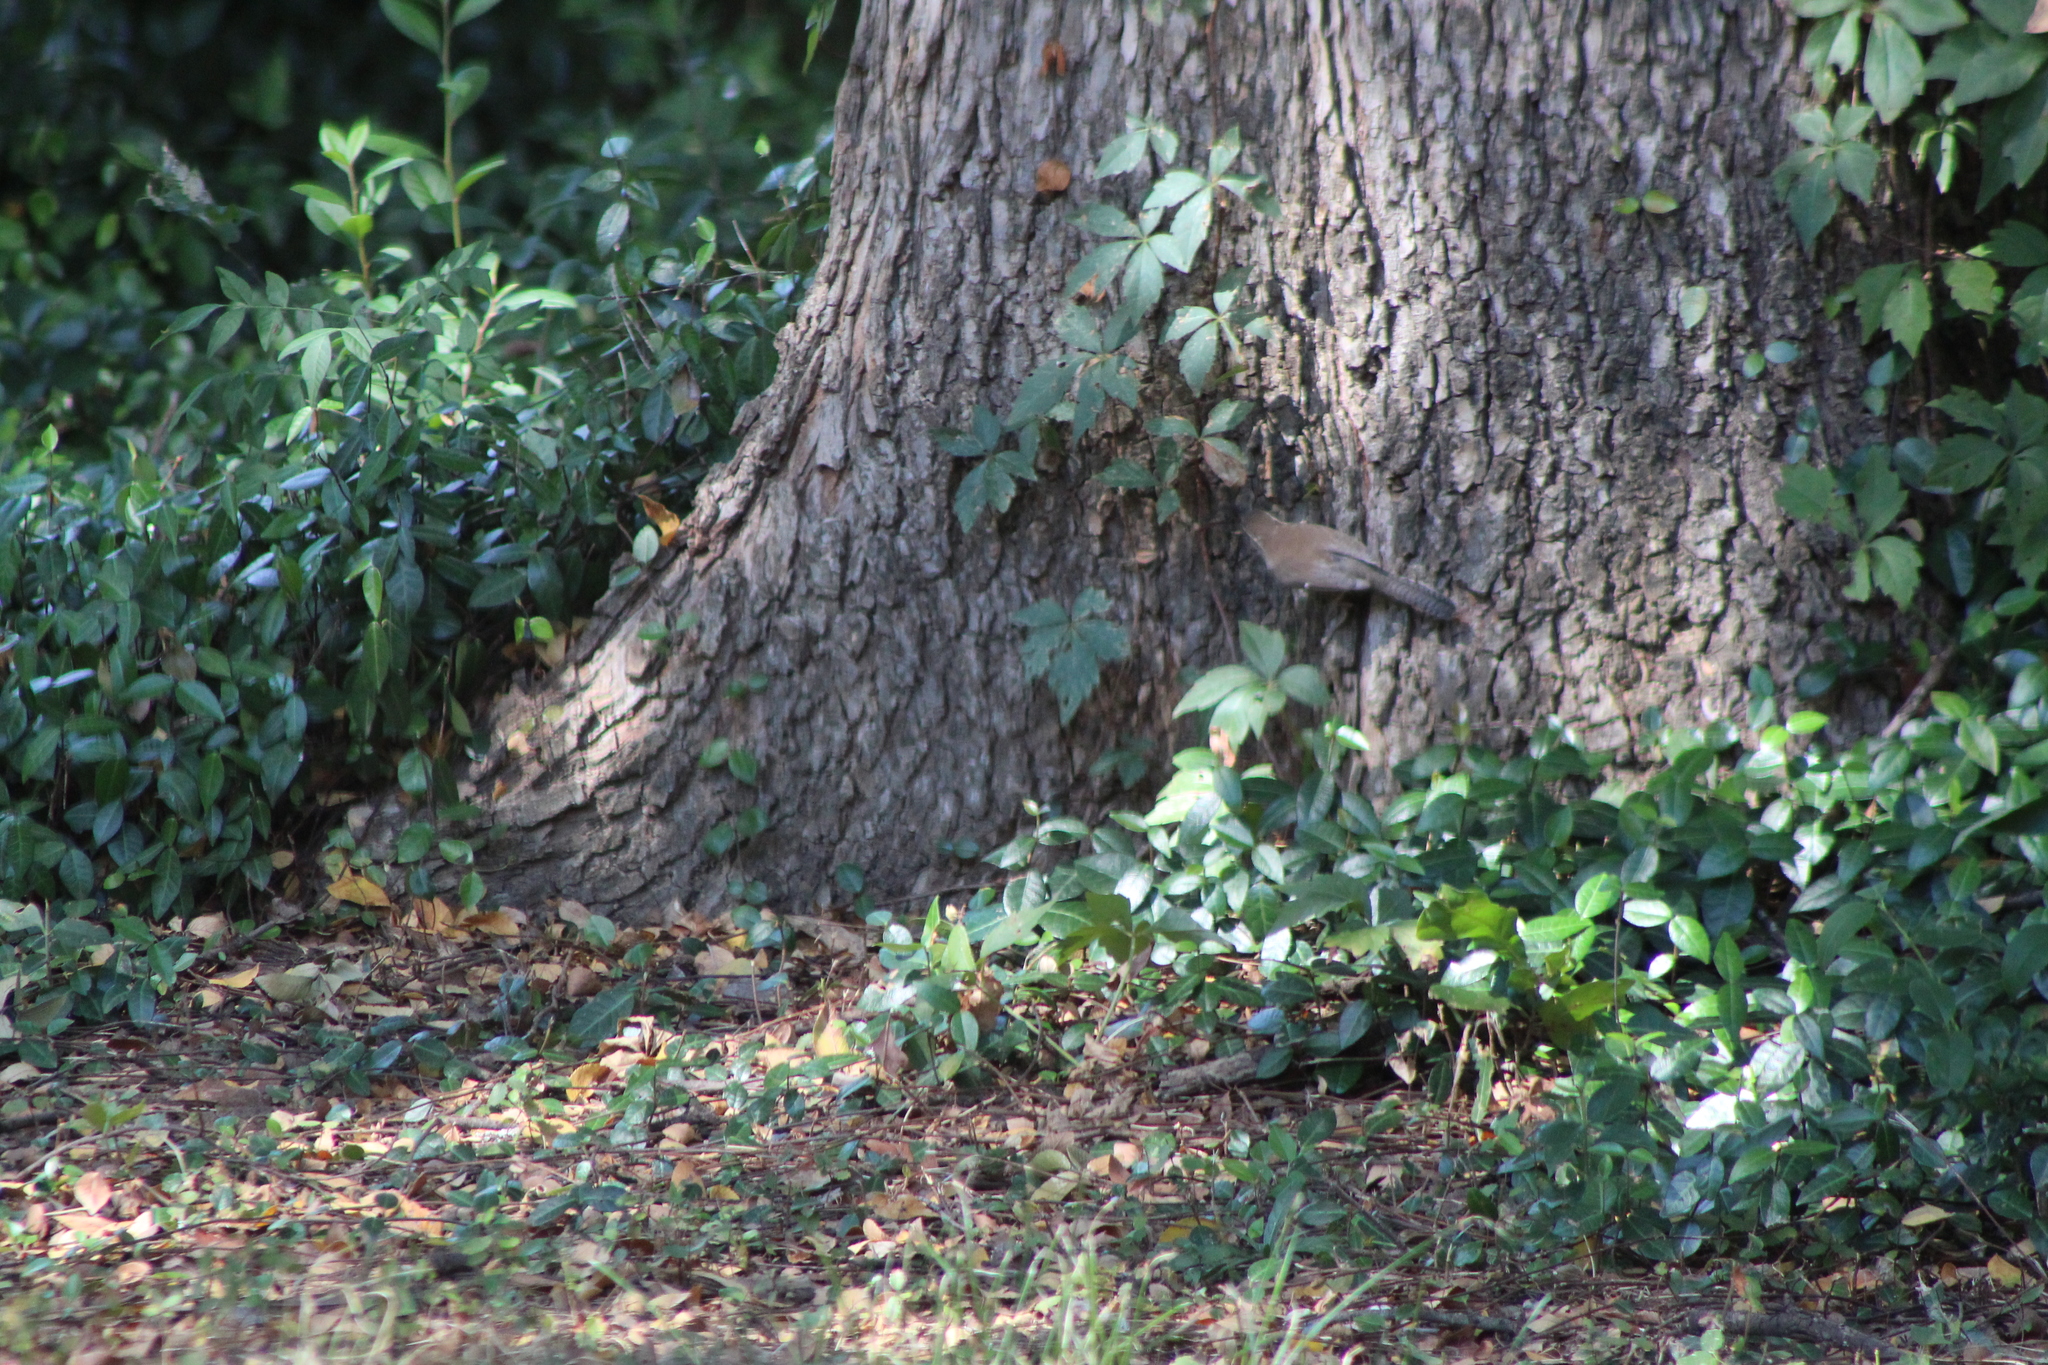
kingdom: Animalia
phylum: Chordata
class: Aves
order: Passeriformes
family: Troglodytidae
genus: Thryomanes
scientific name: Thryomanes bewickii
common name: Bewick's wren
